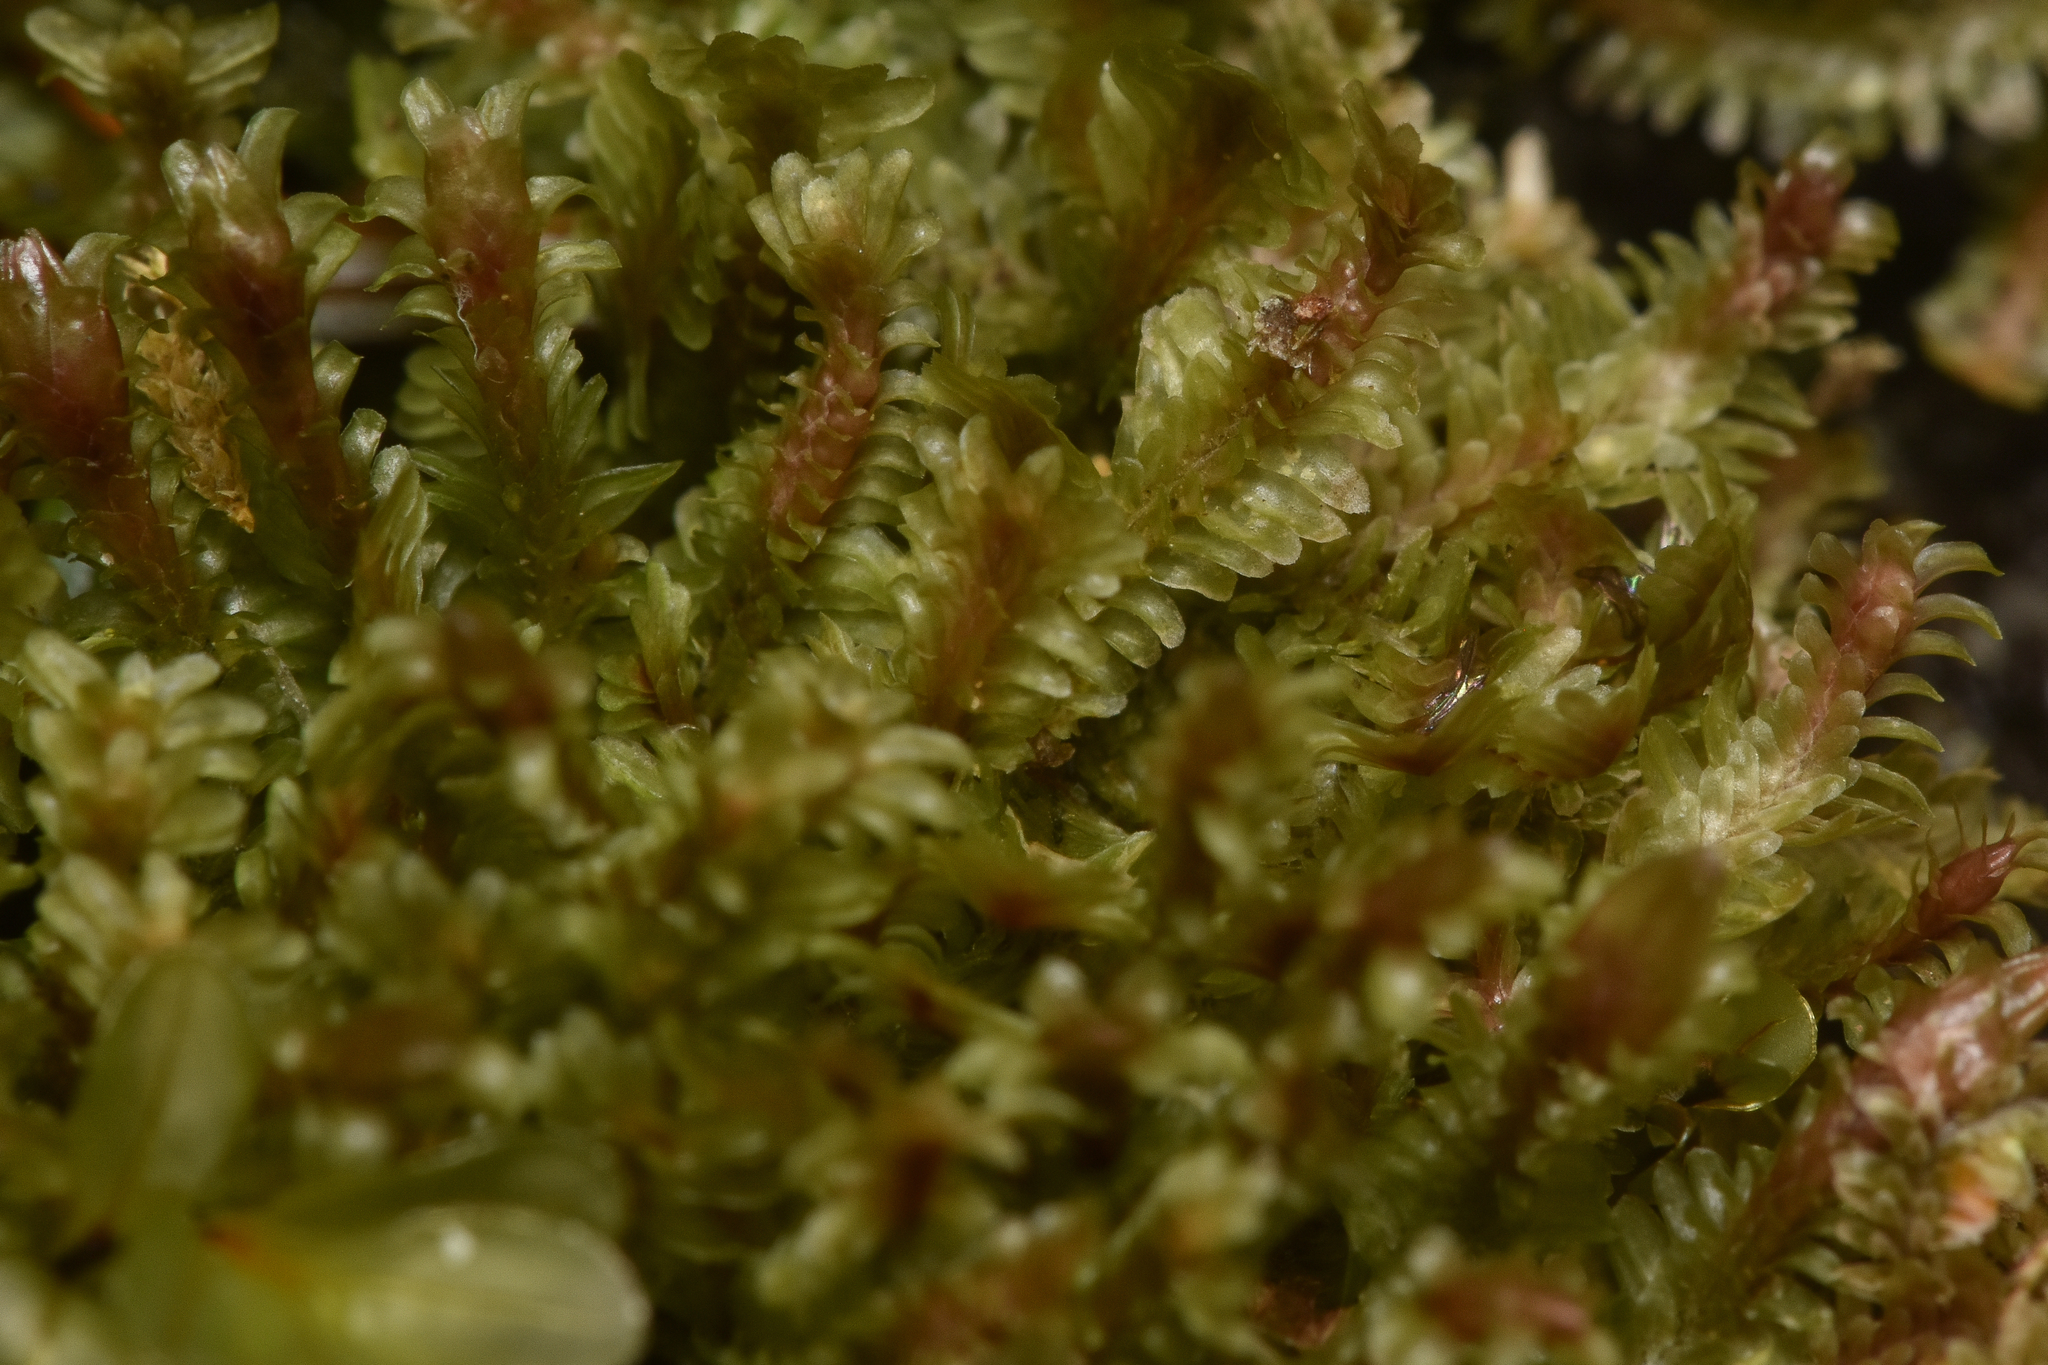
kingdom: Plantae
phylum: Marchantiophyta
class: Jungermanniopsida
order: Jungermanniales
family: Scapaniaceae
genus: Diplophyllum
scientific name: Diplophyllum albicans
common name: White earwort
